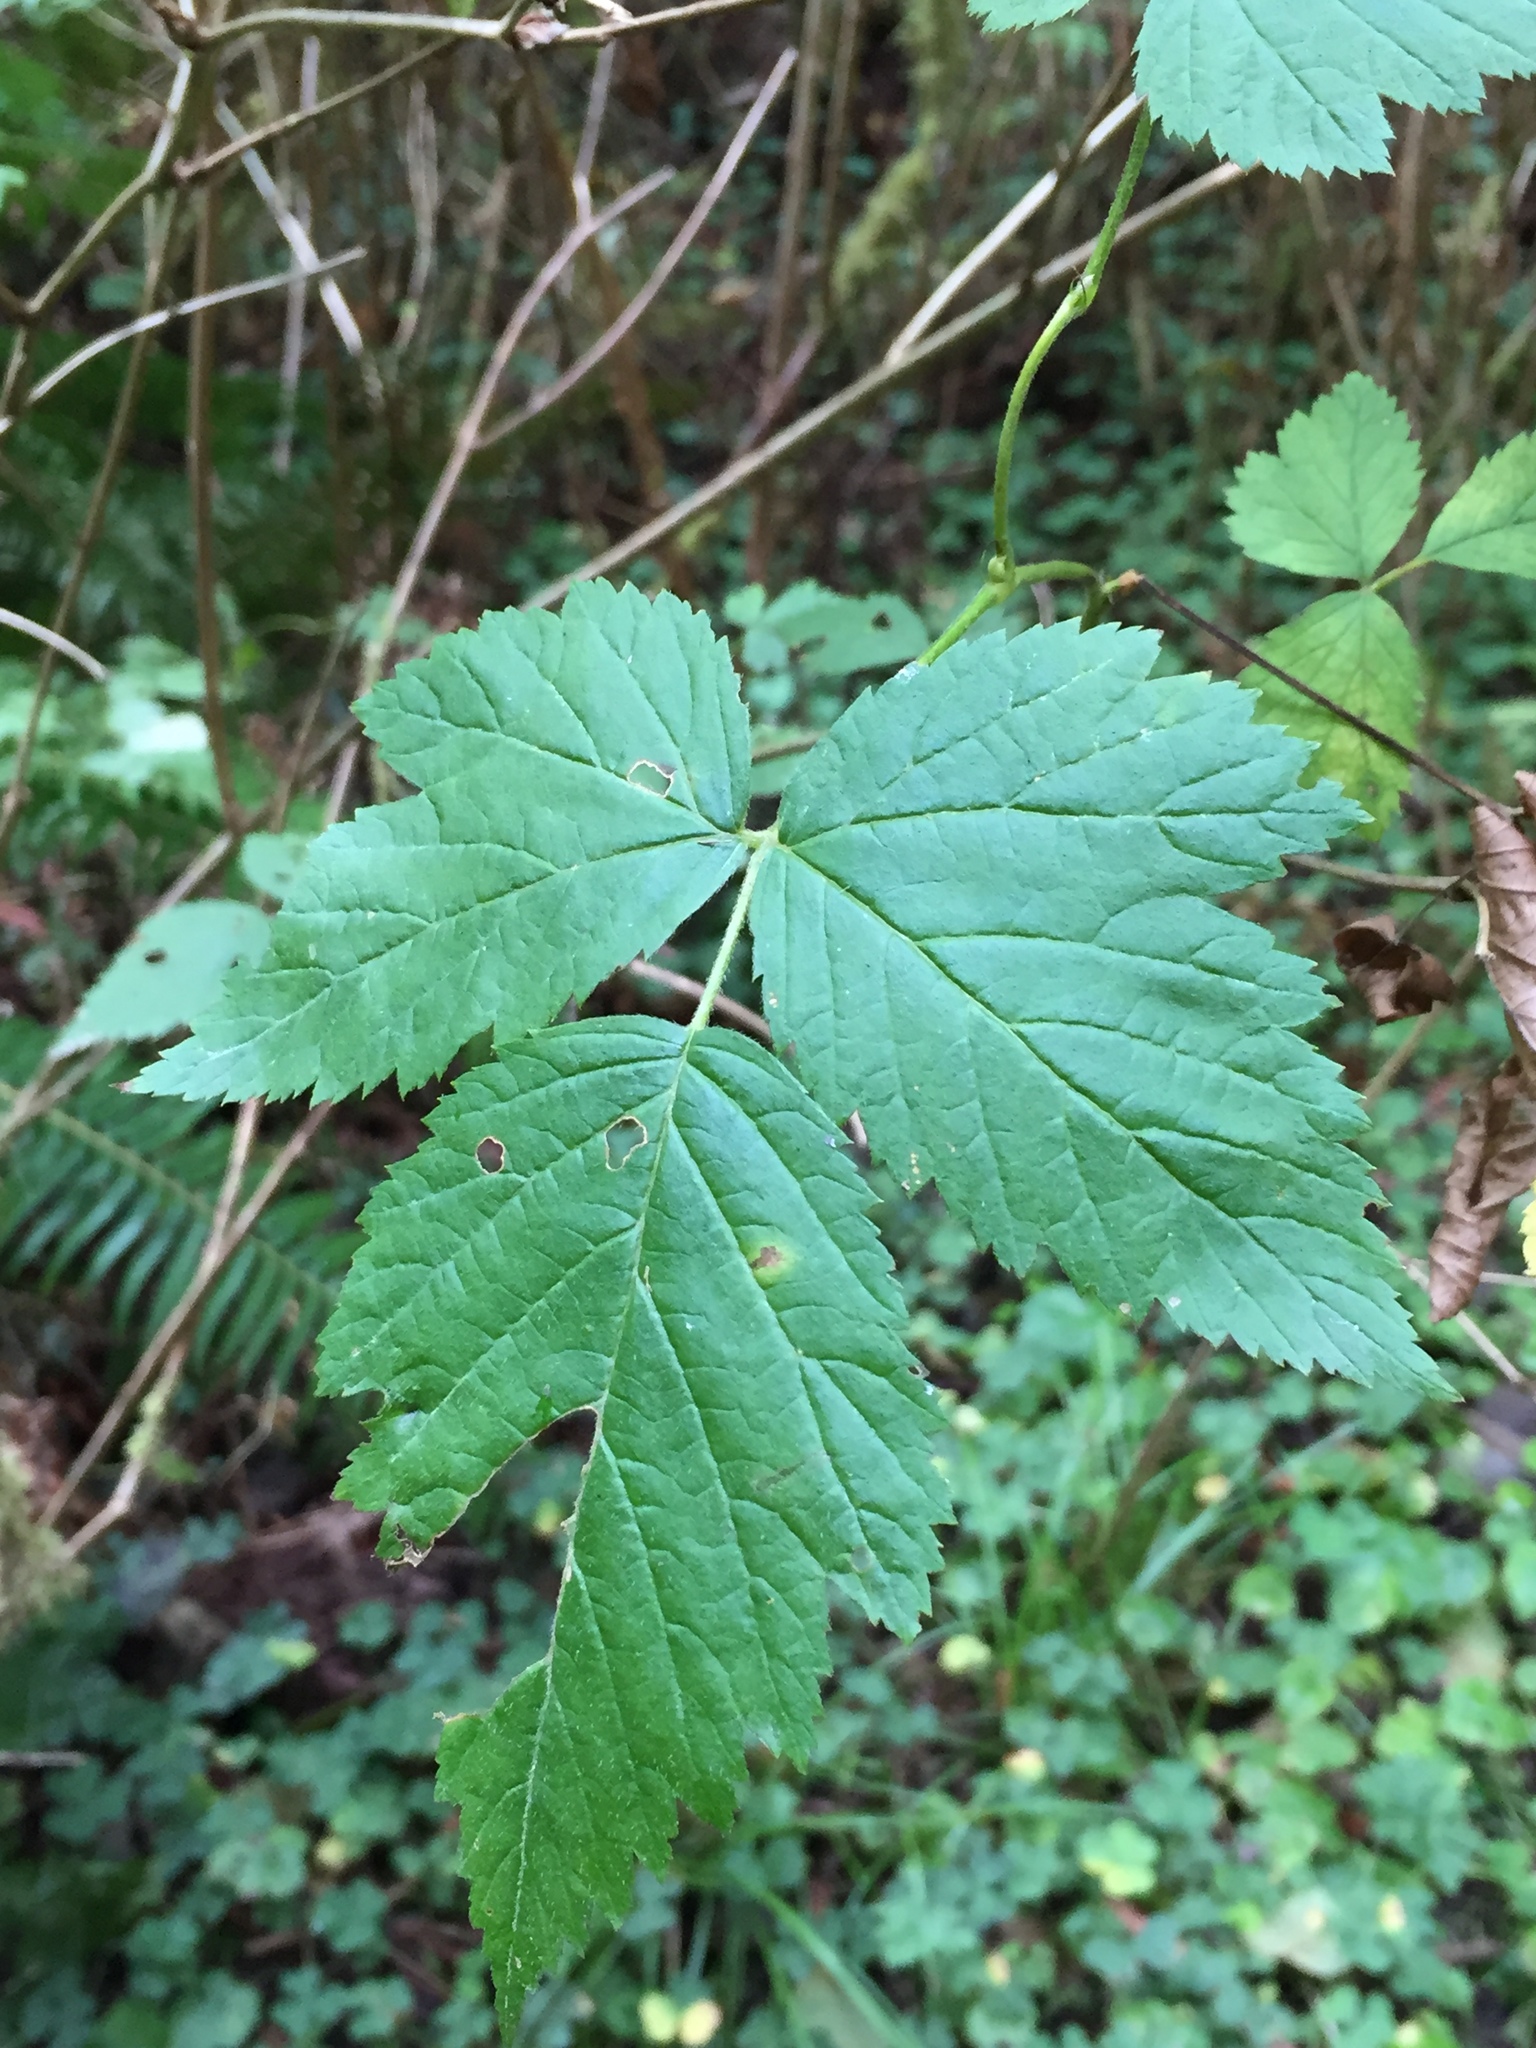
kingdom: Plantae
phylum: Tracheophyta
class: Magnoliopsida
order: Rosales
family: Rosaceae
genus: Rubus
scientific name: Rubus spectabilis
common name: Salmonberry
